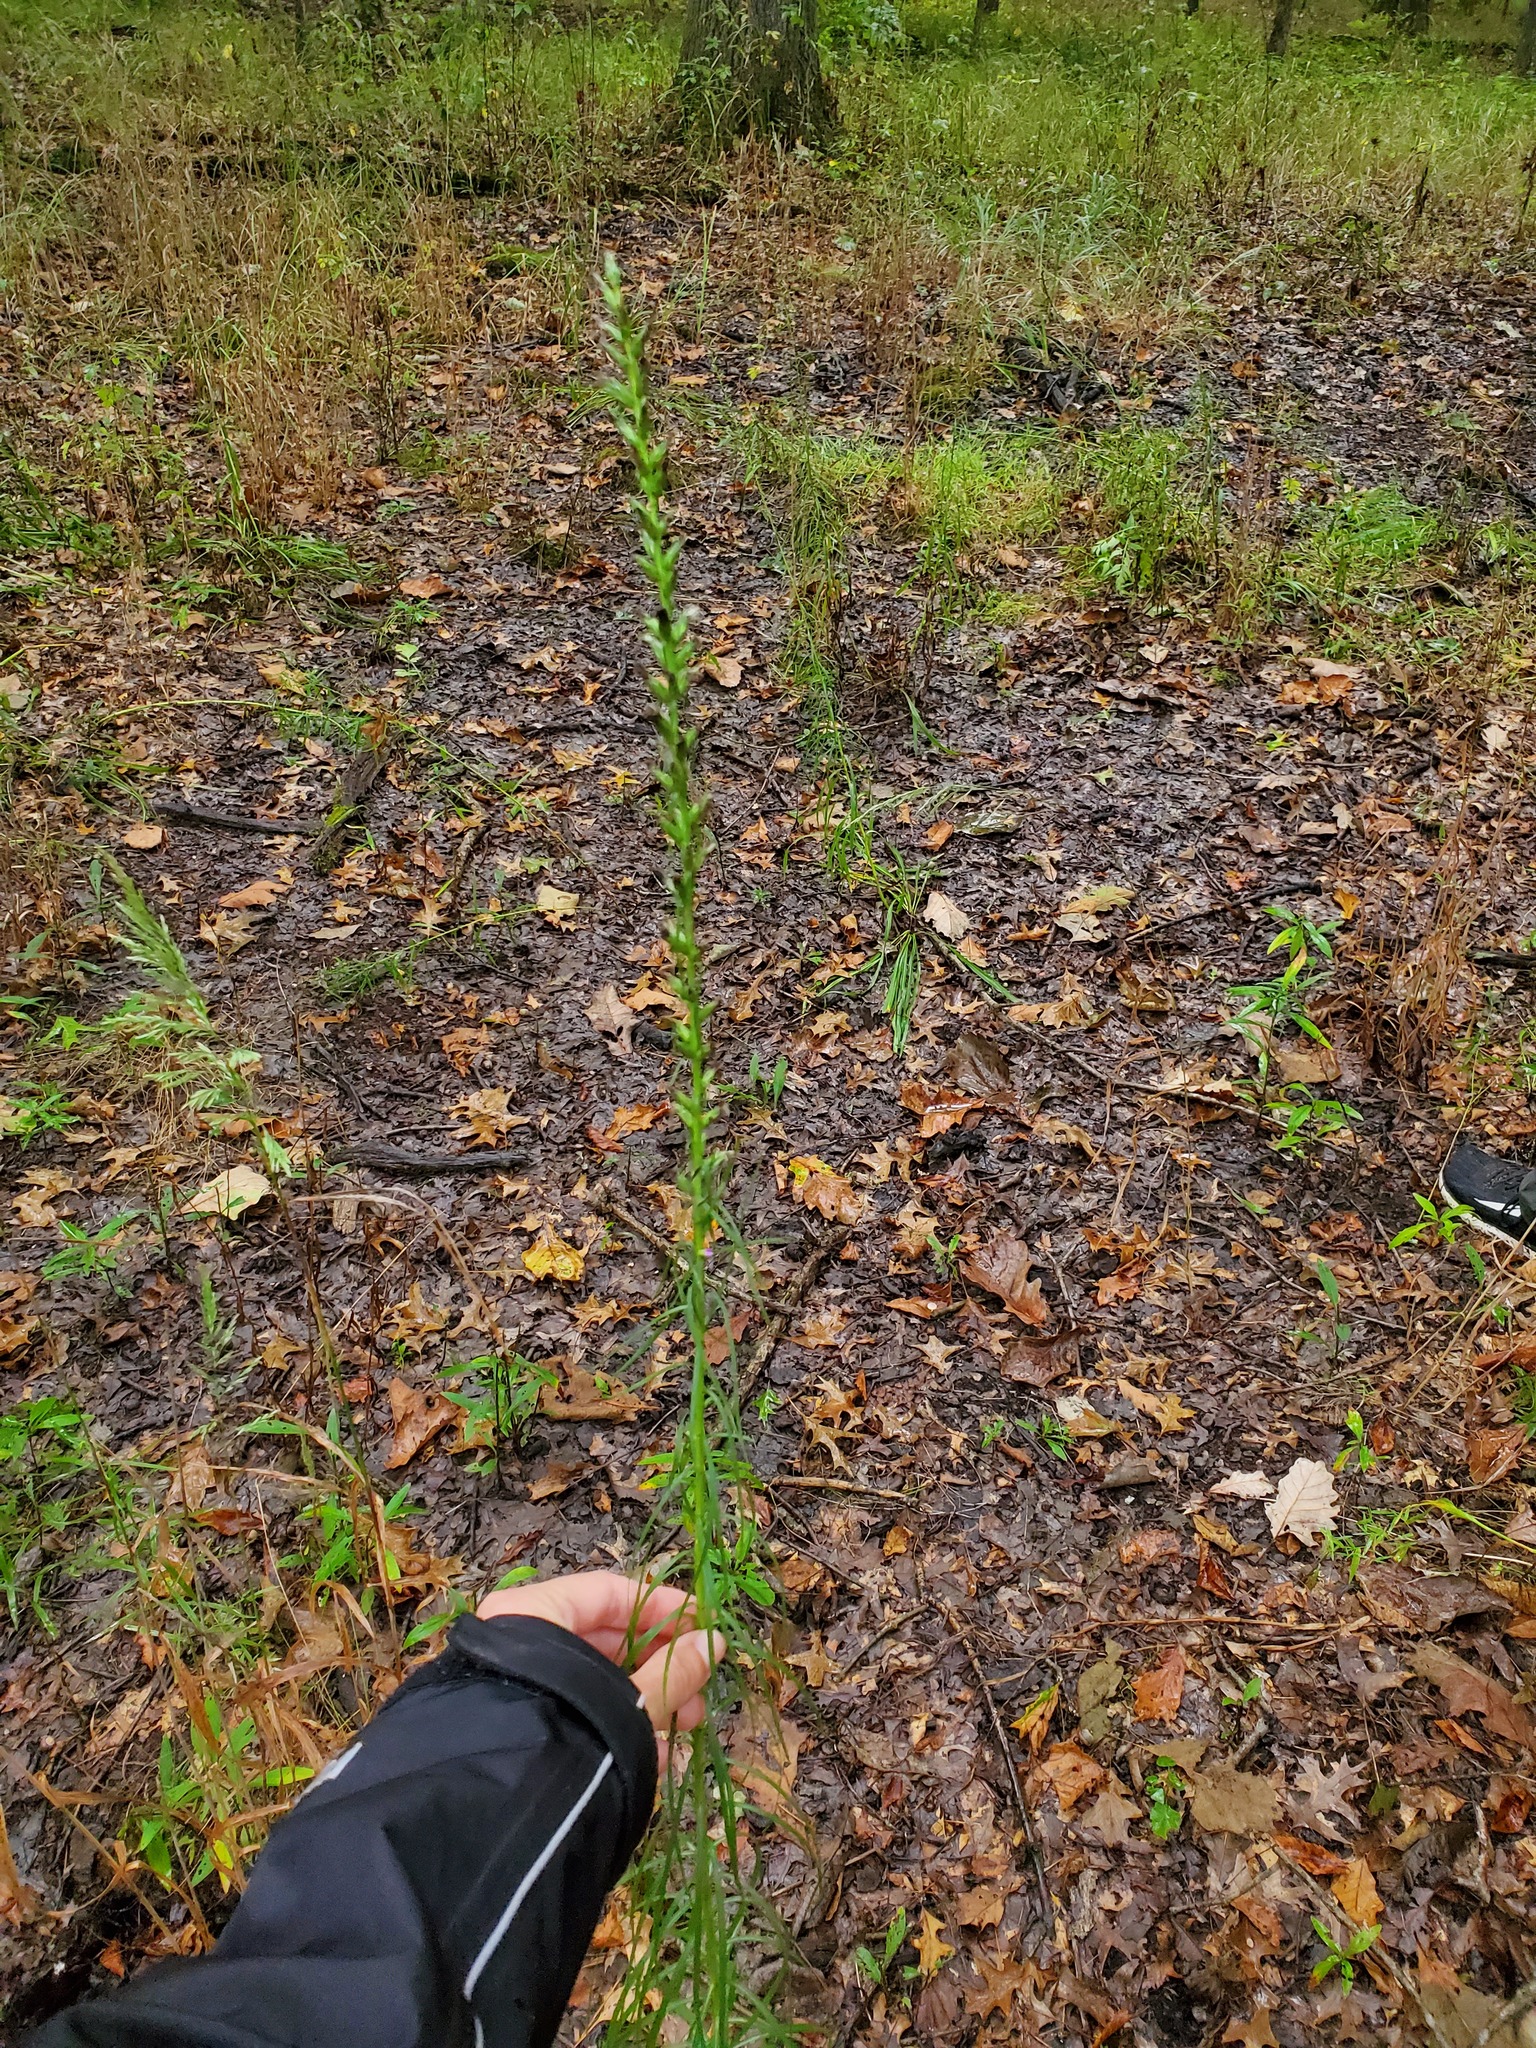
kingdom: Plantae
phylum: Tracheophyta
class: Magnoliopsida
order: Asterales
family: Asteraceae
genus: Liatris
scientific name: Liatris spicata
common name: Florist gayfeather
